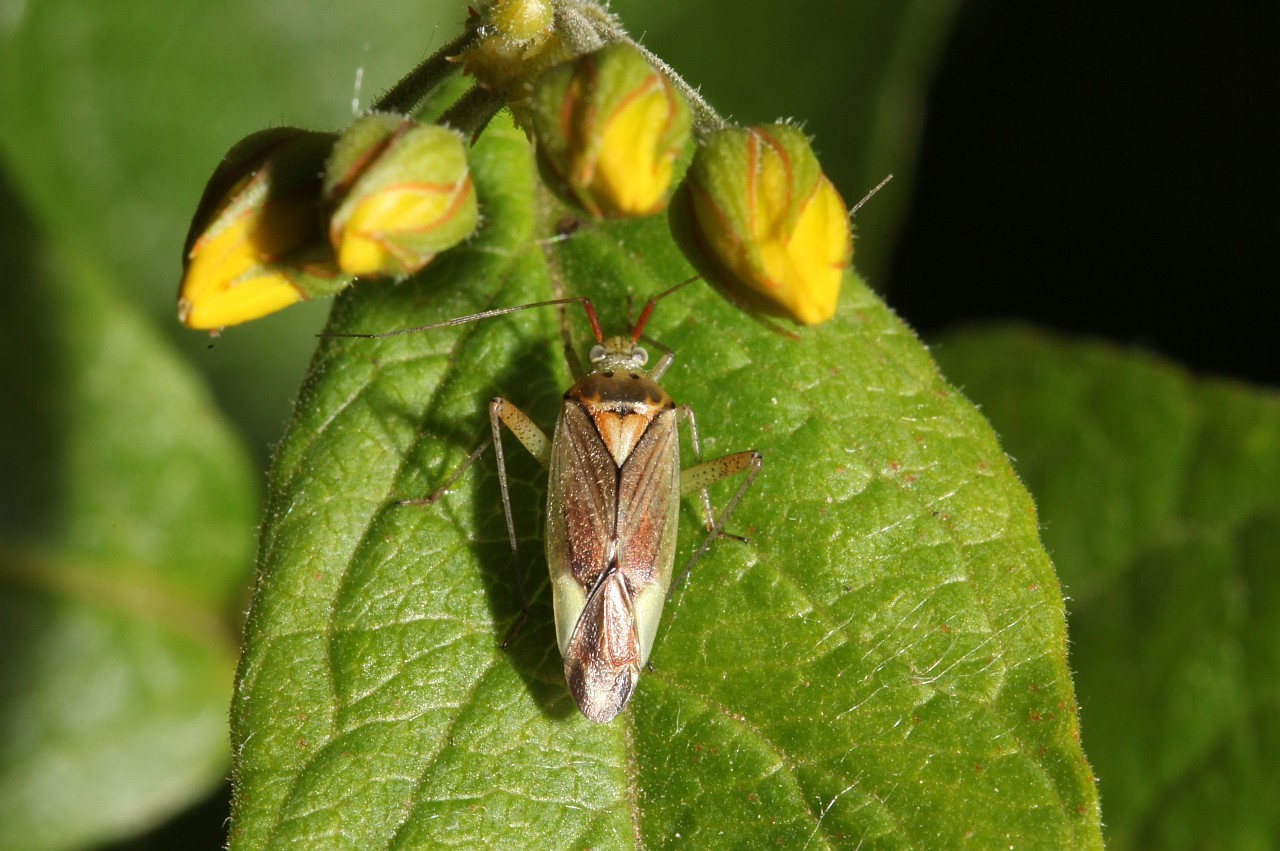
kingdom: Animalia
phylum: Arthropoda
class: Insecta
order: Hemiptera
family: Miridae
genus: Closterotomus
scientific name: Closterotomus trivialis
